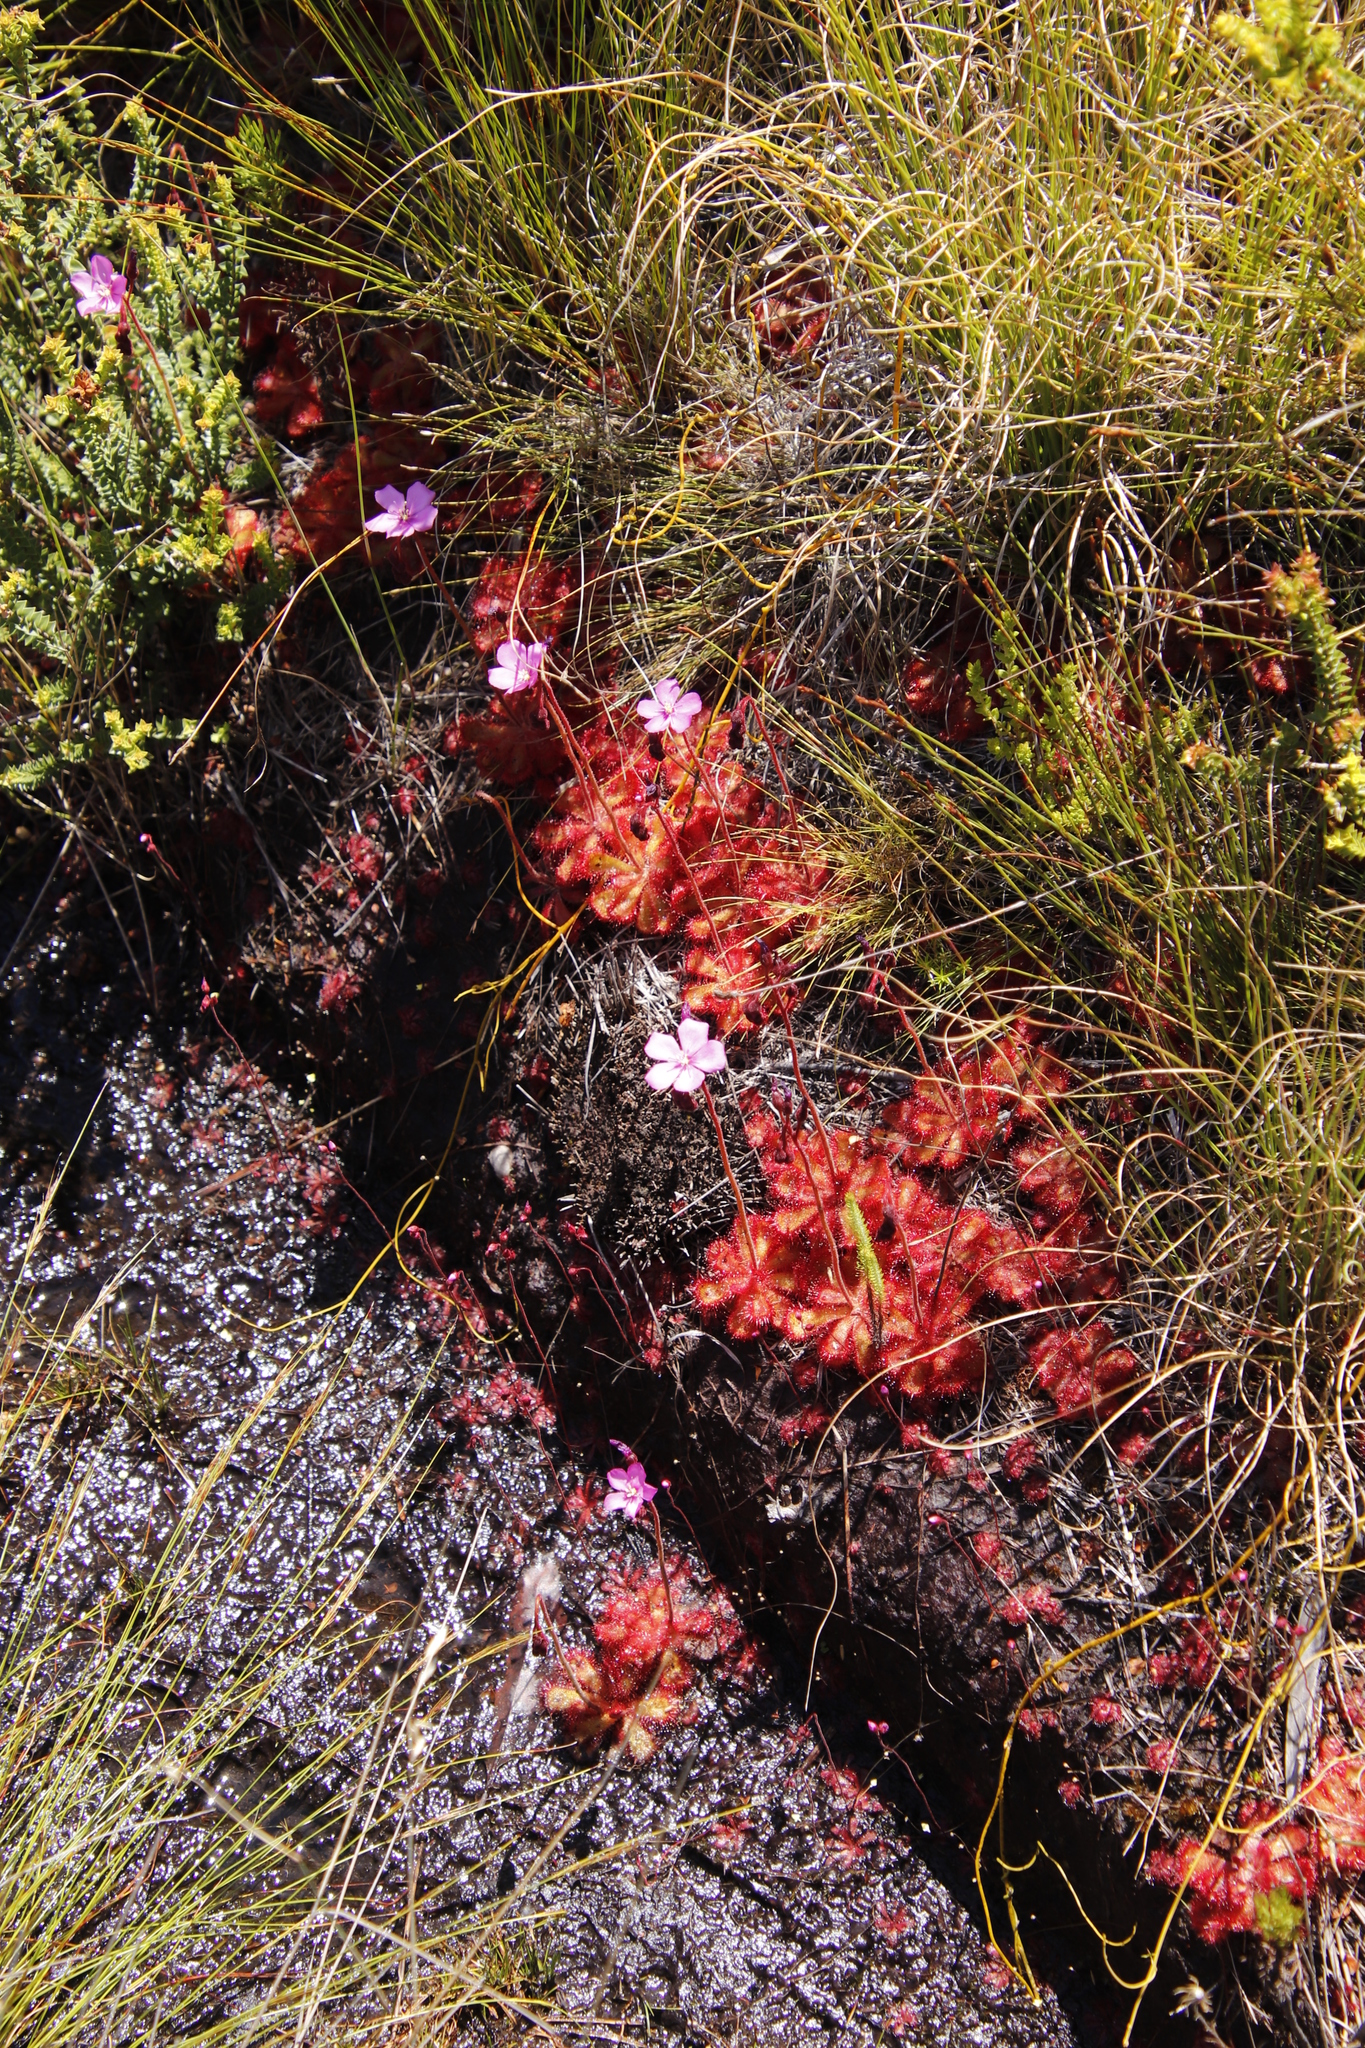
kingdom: Plantae
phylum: Tracheophyta
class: Magnoliopsida
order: Caryophyllales
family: Droseraceae
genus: Drosera
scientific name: Drosera cuneifolia
